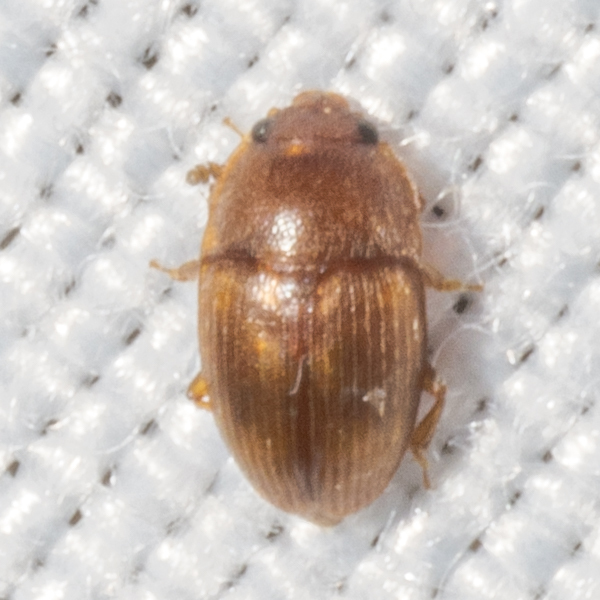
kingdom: Animalia
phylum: Arthropoda
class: Insecta
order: Coleoptera
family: Nitidulidae
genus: Stelidota
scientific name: Stelidota coenosa
